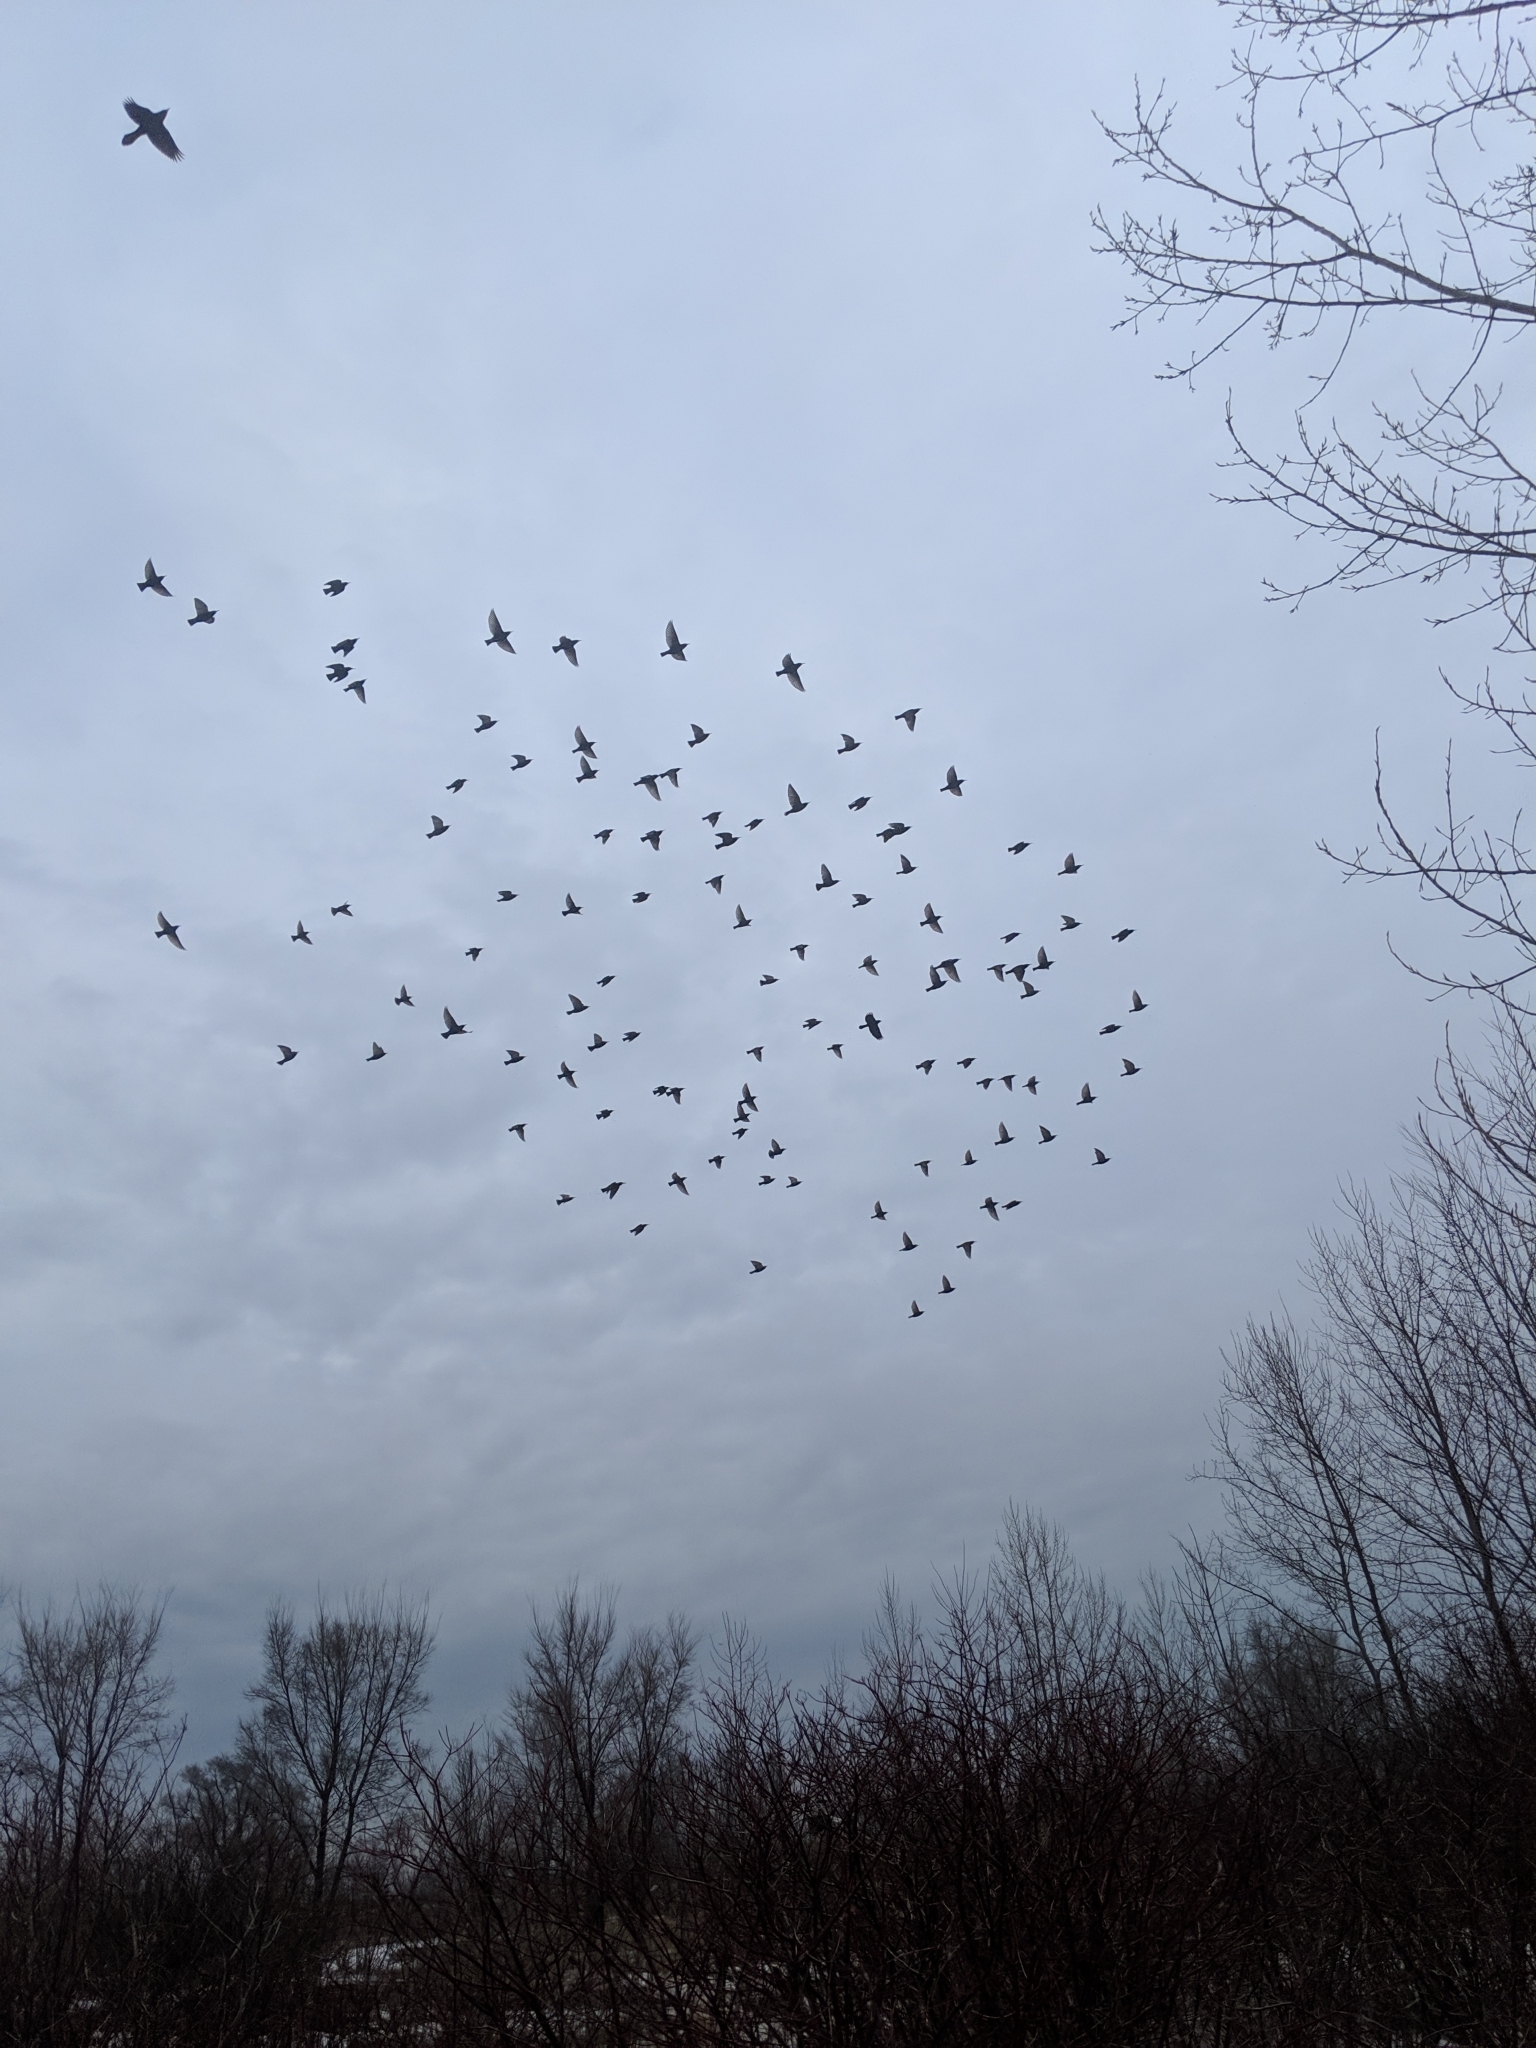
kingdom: Animalia
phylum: Chordata
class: Aves
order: Passeriformes
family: Sturnidae
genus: Sturnus
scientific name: Sturnus vulgaris
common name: Common starling
